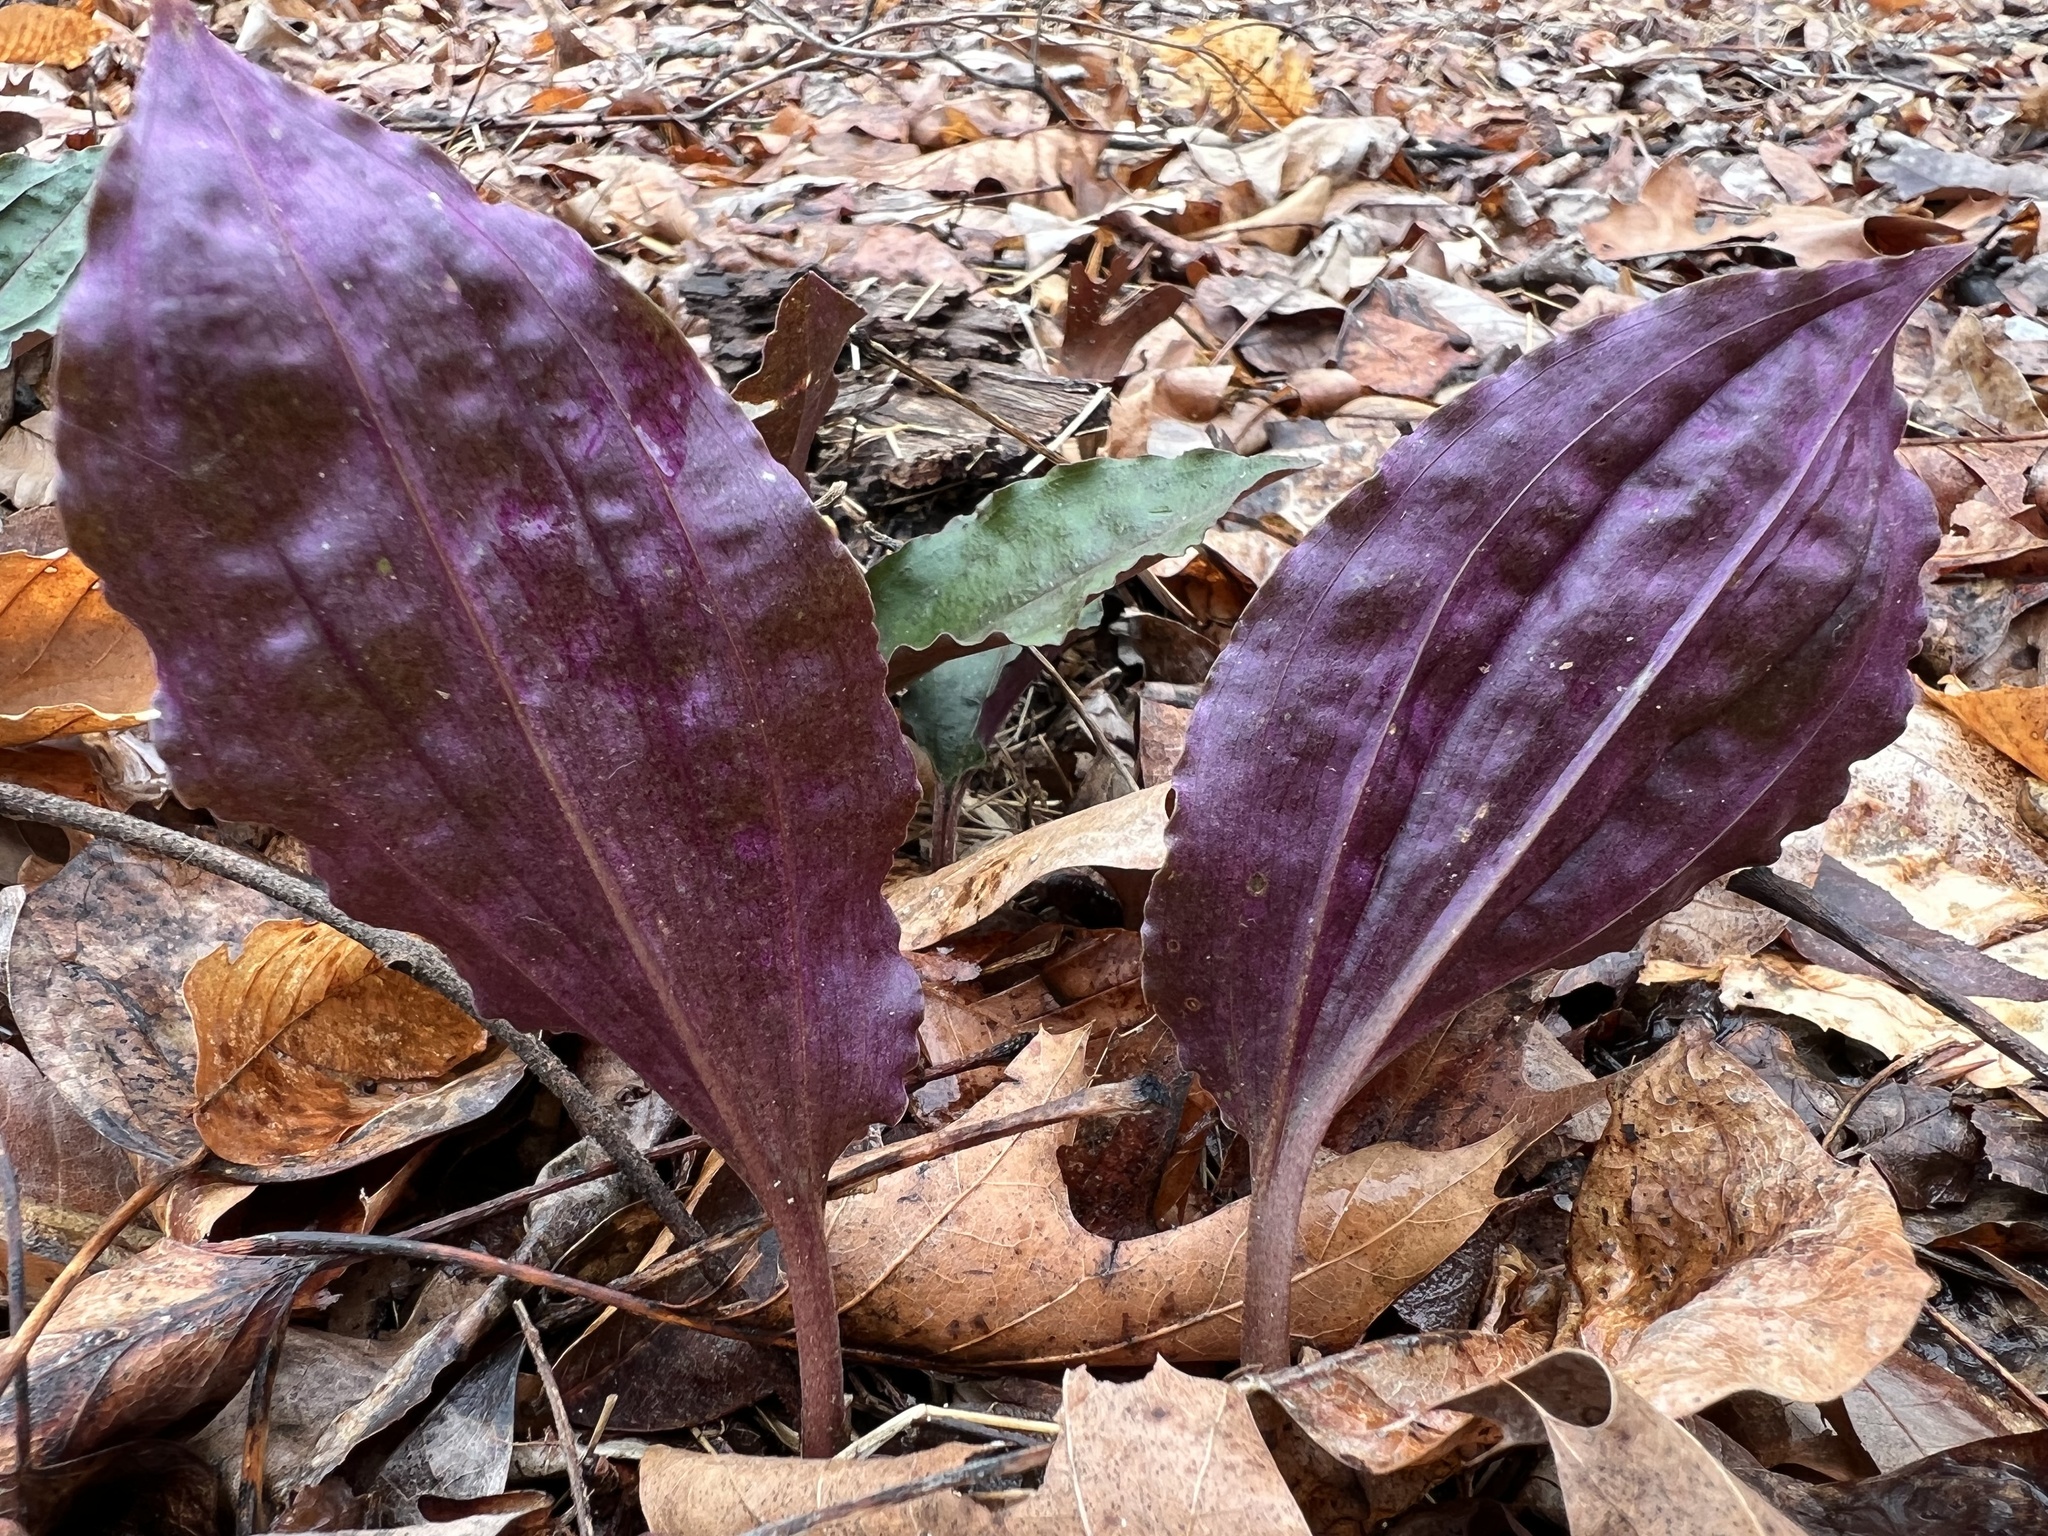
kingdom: Plantae
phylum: Tracheophyta
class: Liliopsida
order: Asparagales
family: Orchidaceae
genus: Tipularia
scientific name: Tipularia discolor
